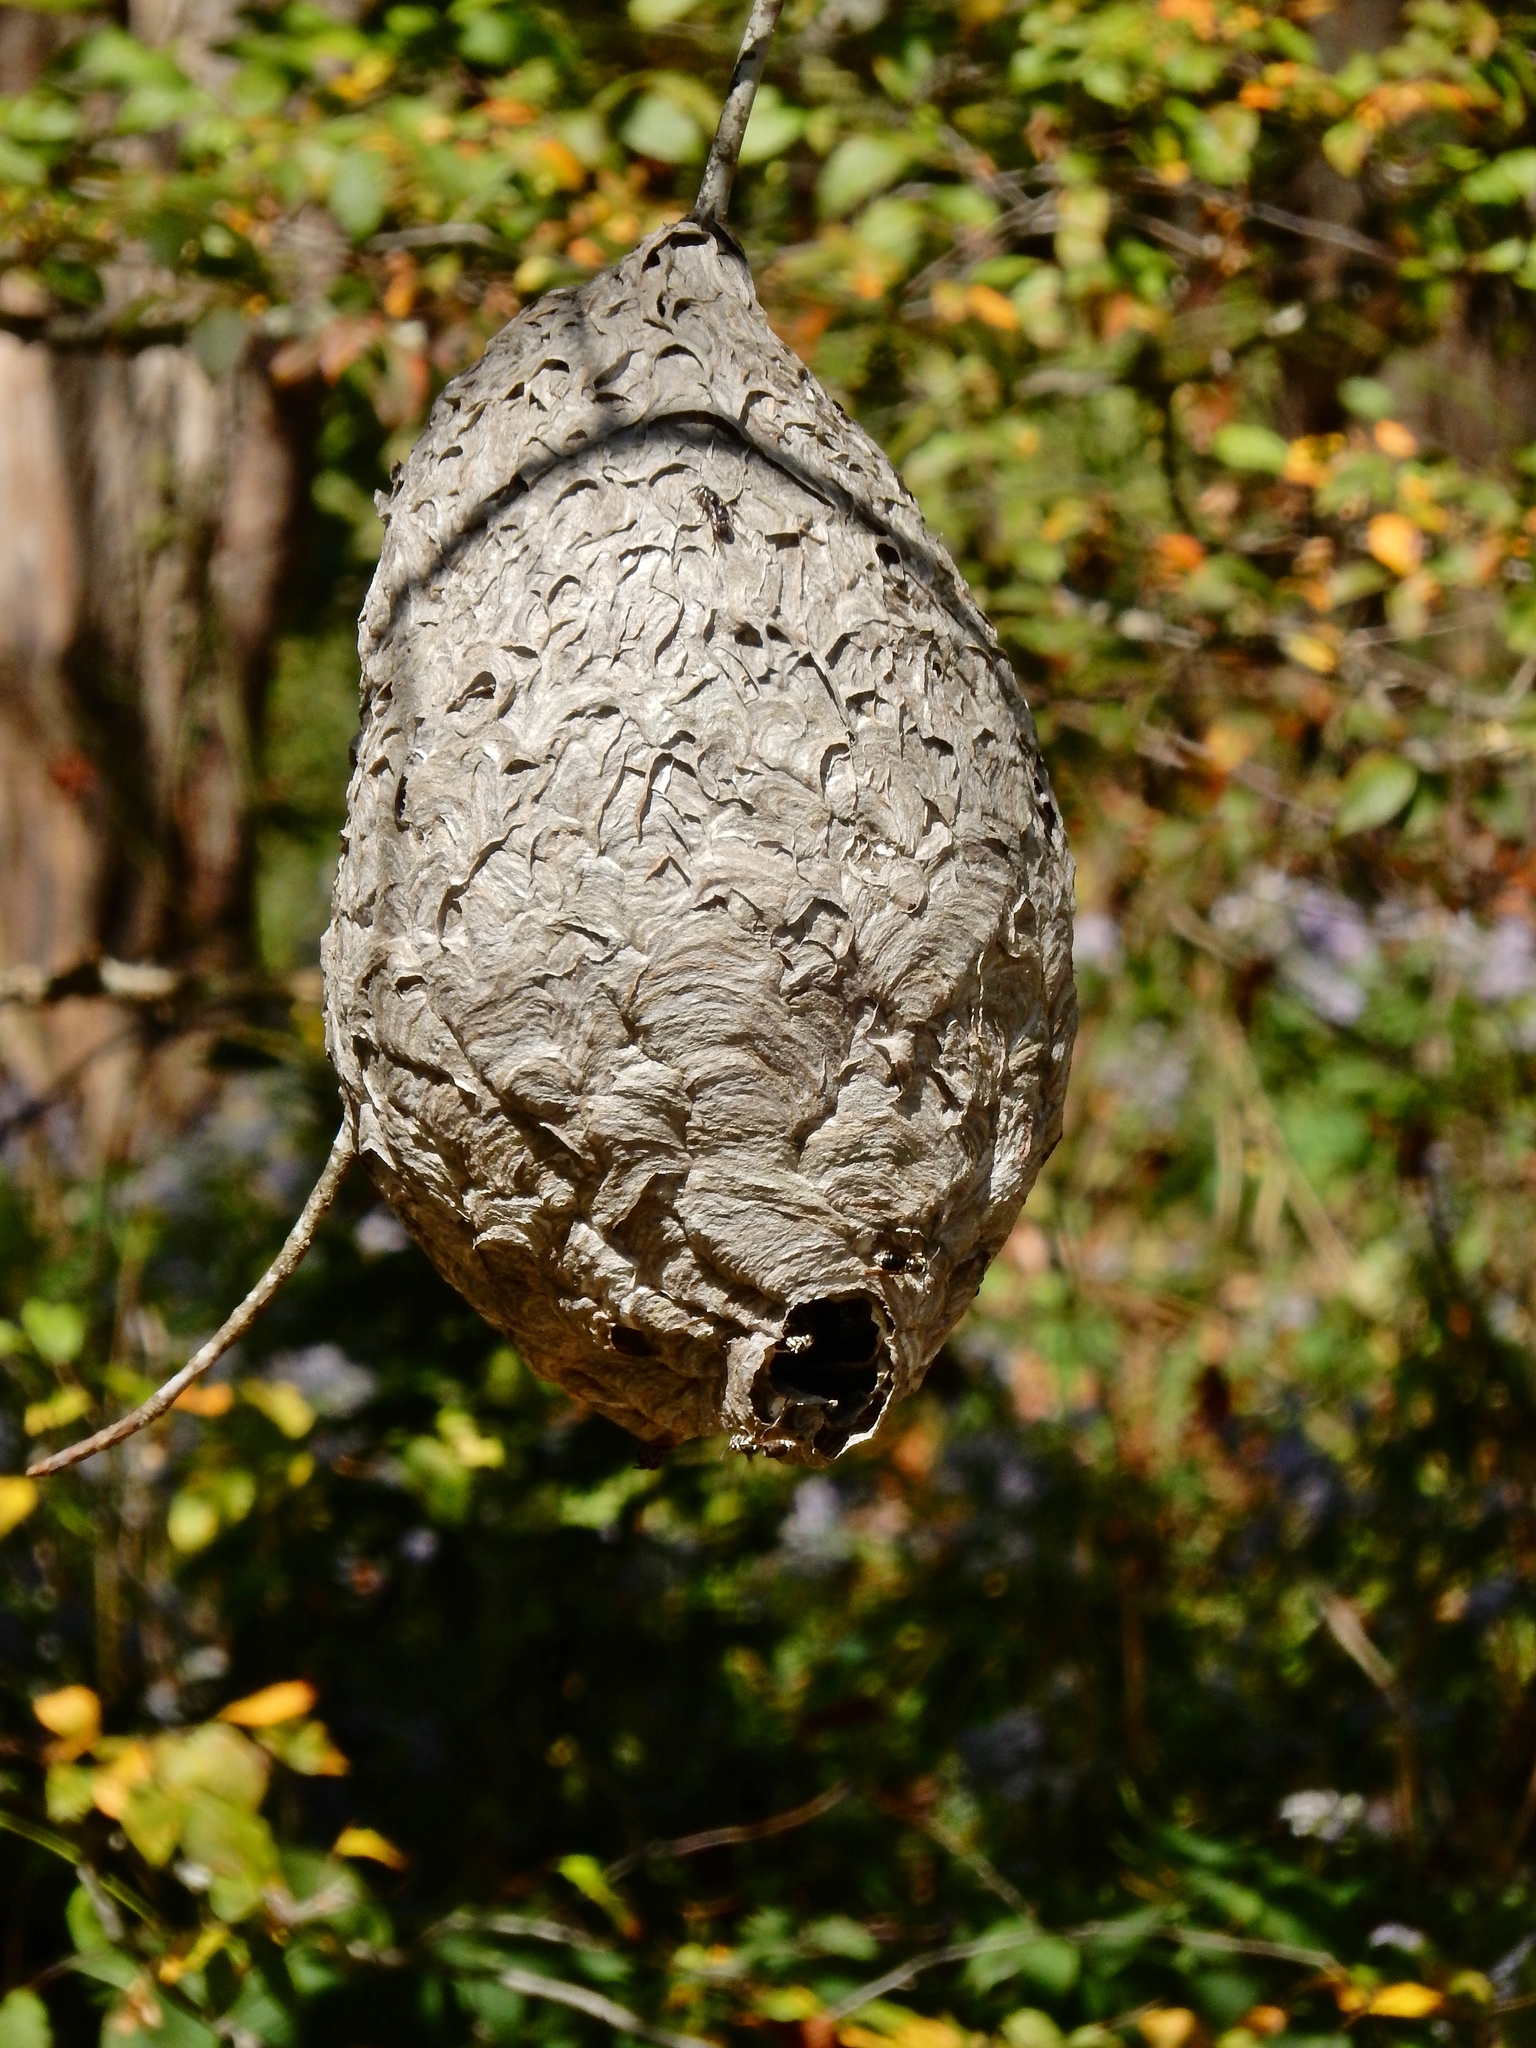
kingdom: Animalia
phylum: Arthropoda
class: Insecta
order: Hymenoptera
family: Vespidae
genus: Dolichovespula
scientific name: Dolichovespula maculata
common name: Bald-faced hornet
